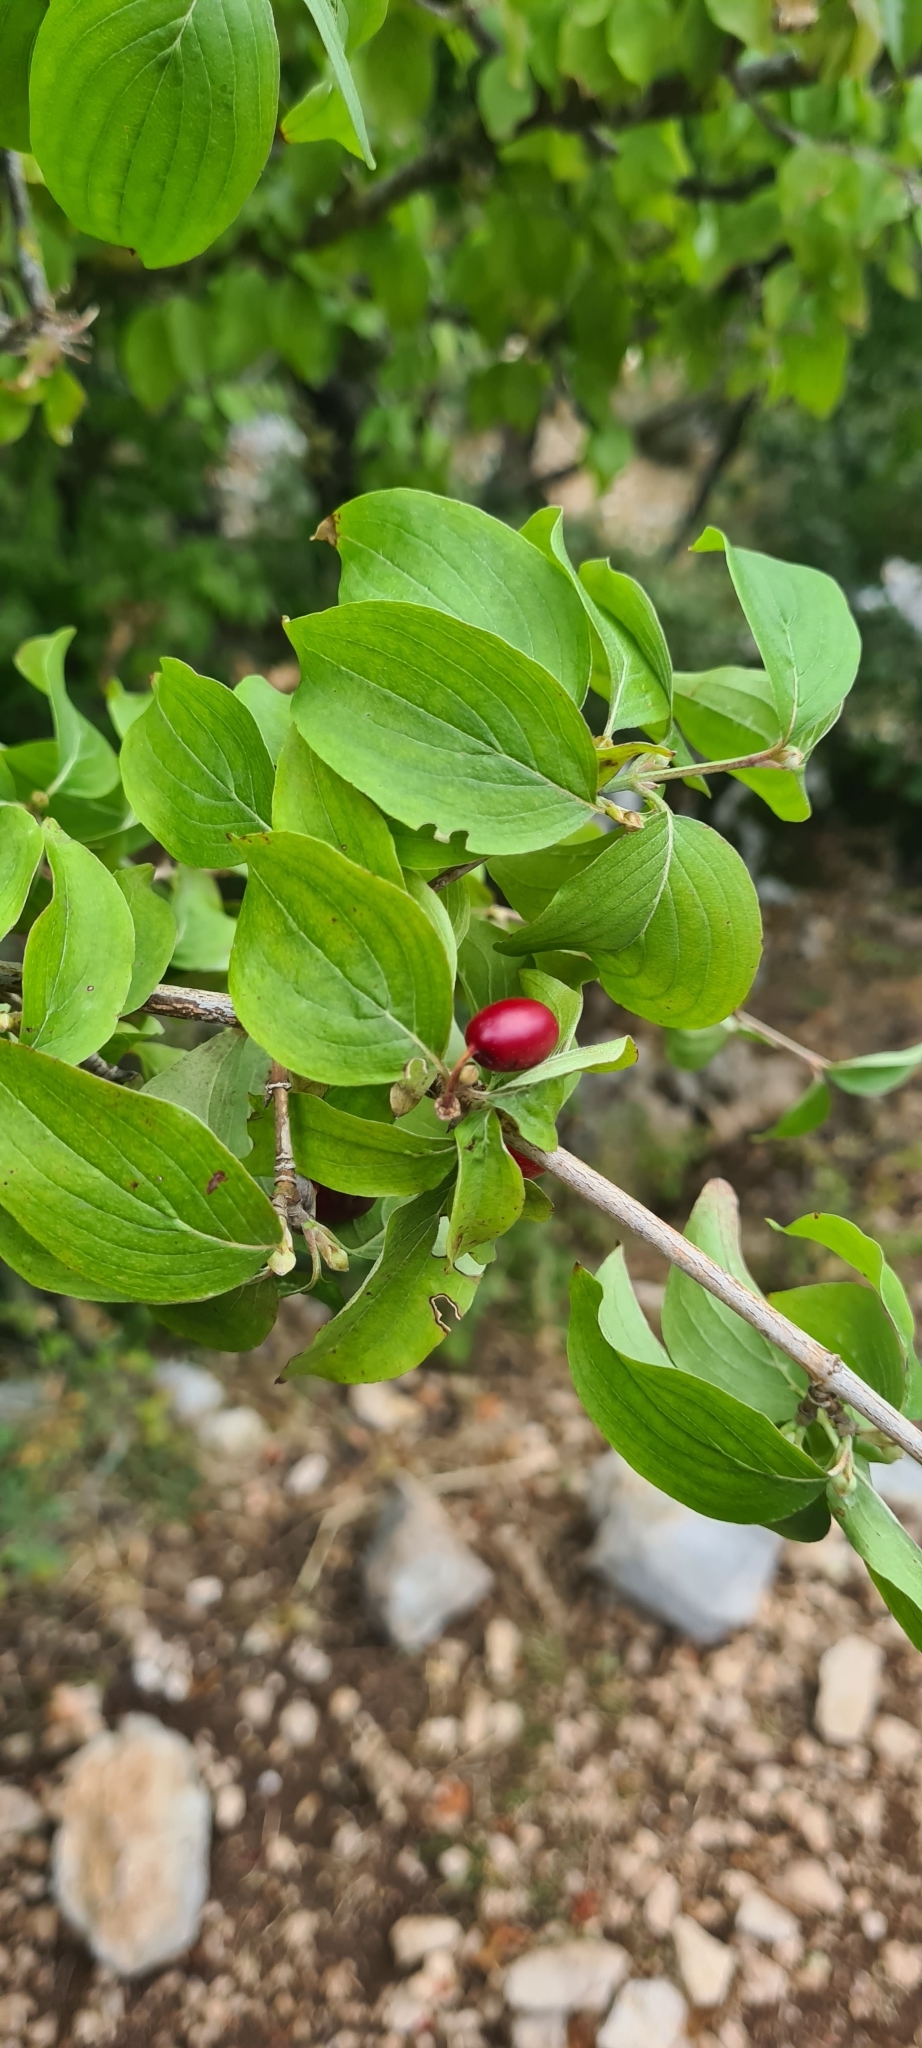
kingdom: Plantae
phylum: Tracheophyta
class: Magnoliopsida
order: Cornales
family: Cornaceae
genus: Cornus
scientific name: Cornus mas
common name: Cornelian-cherry
